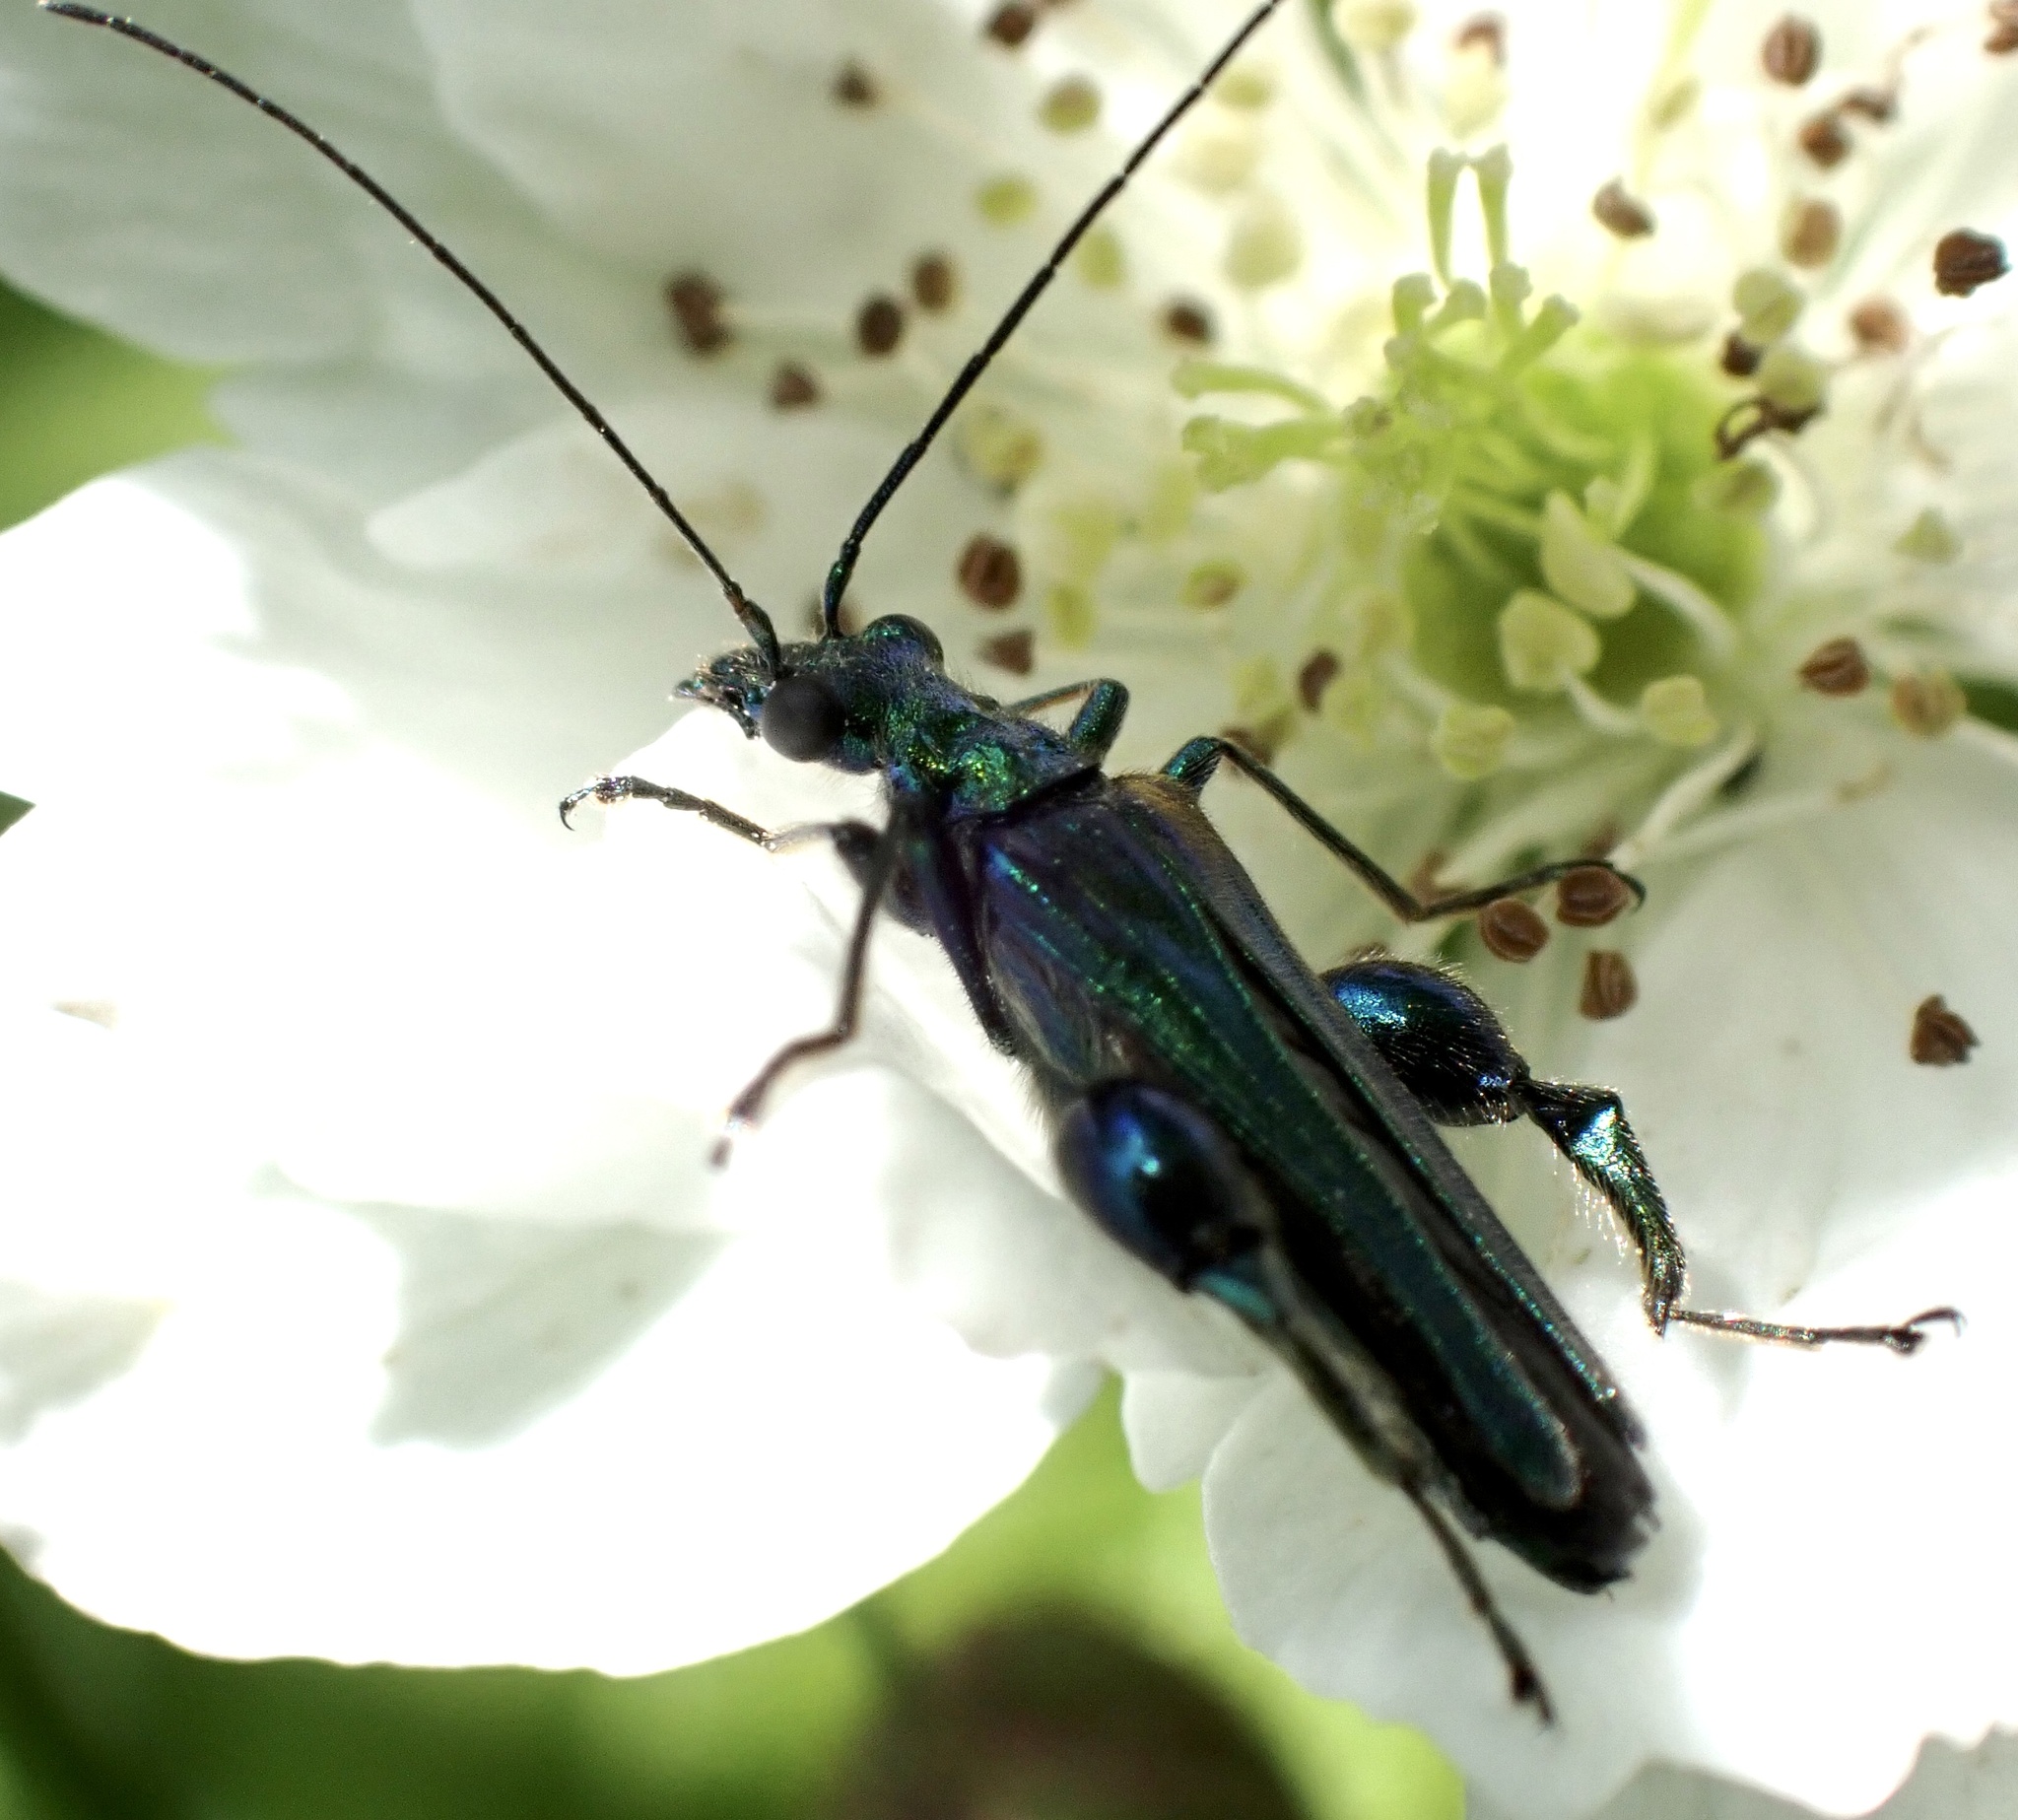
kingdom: Animalia
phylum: Arthropoda
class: Insecta
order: Coleoptera
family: Oedemeridae
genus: Oedemera
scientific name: Oedemera nobilis
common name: Swollen-thighed beetle
